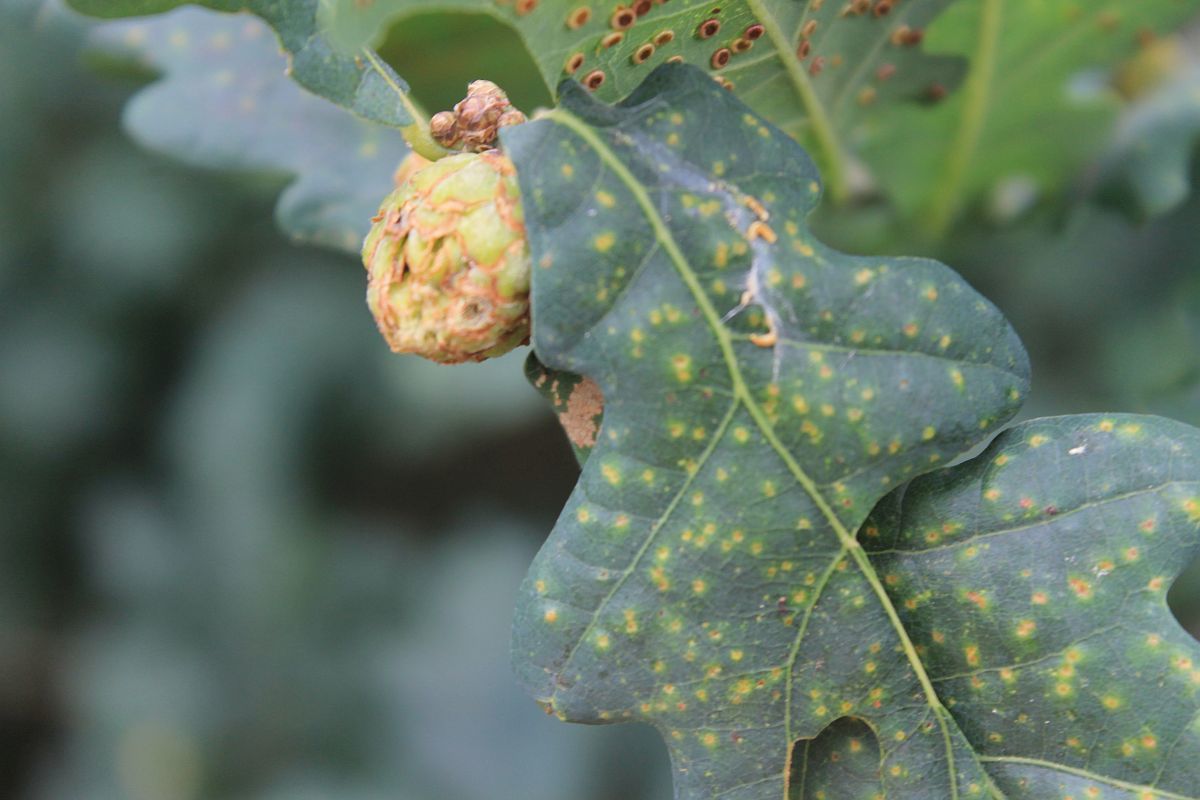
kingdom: Animalia
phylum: Arthropoda
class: Insecta
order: Hymenoptera
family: Cynipidae
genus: Neuroterus
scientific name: Neuroterus numismalis
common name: Silk-button spangle gall
